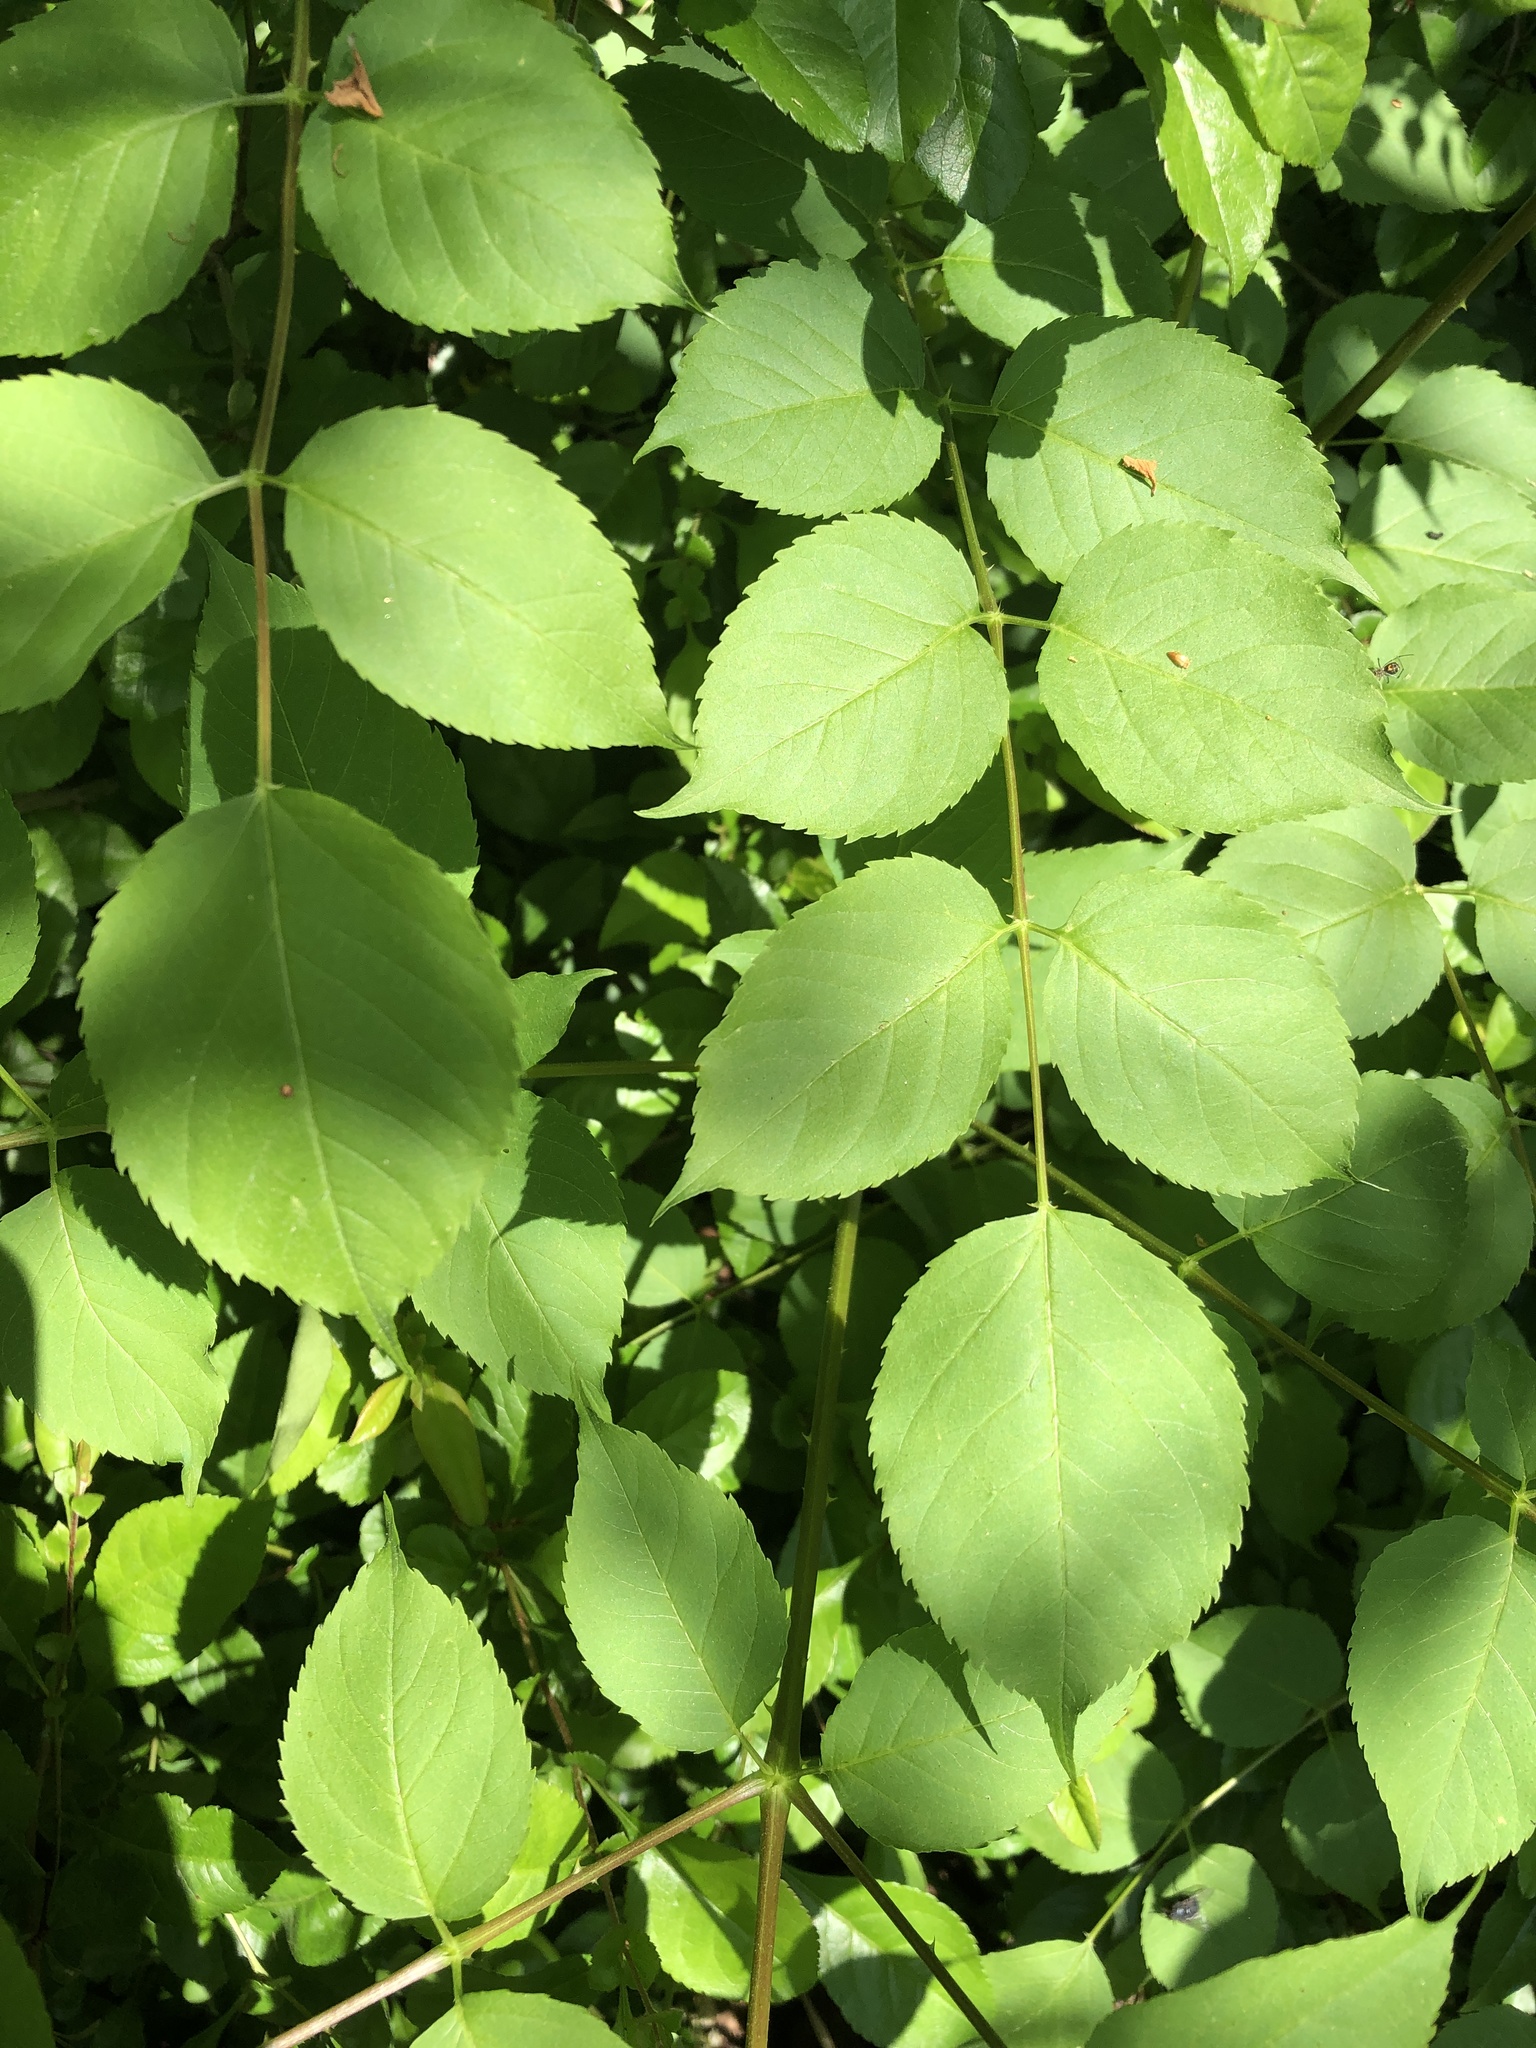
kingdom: Plantae
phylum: Tracheophyta
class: Magnoliopsida
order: Apiales
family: Araliaceae
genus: Aralia
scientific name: Aralia spinosa
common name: Hercules'-club
